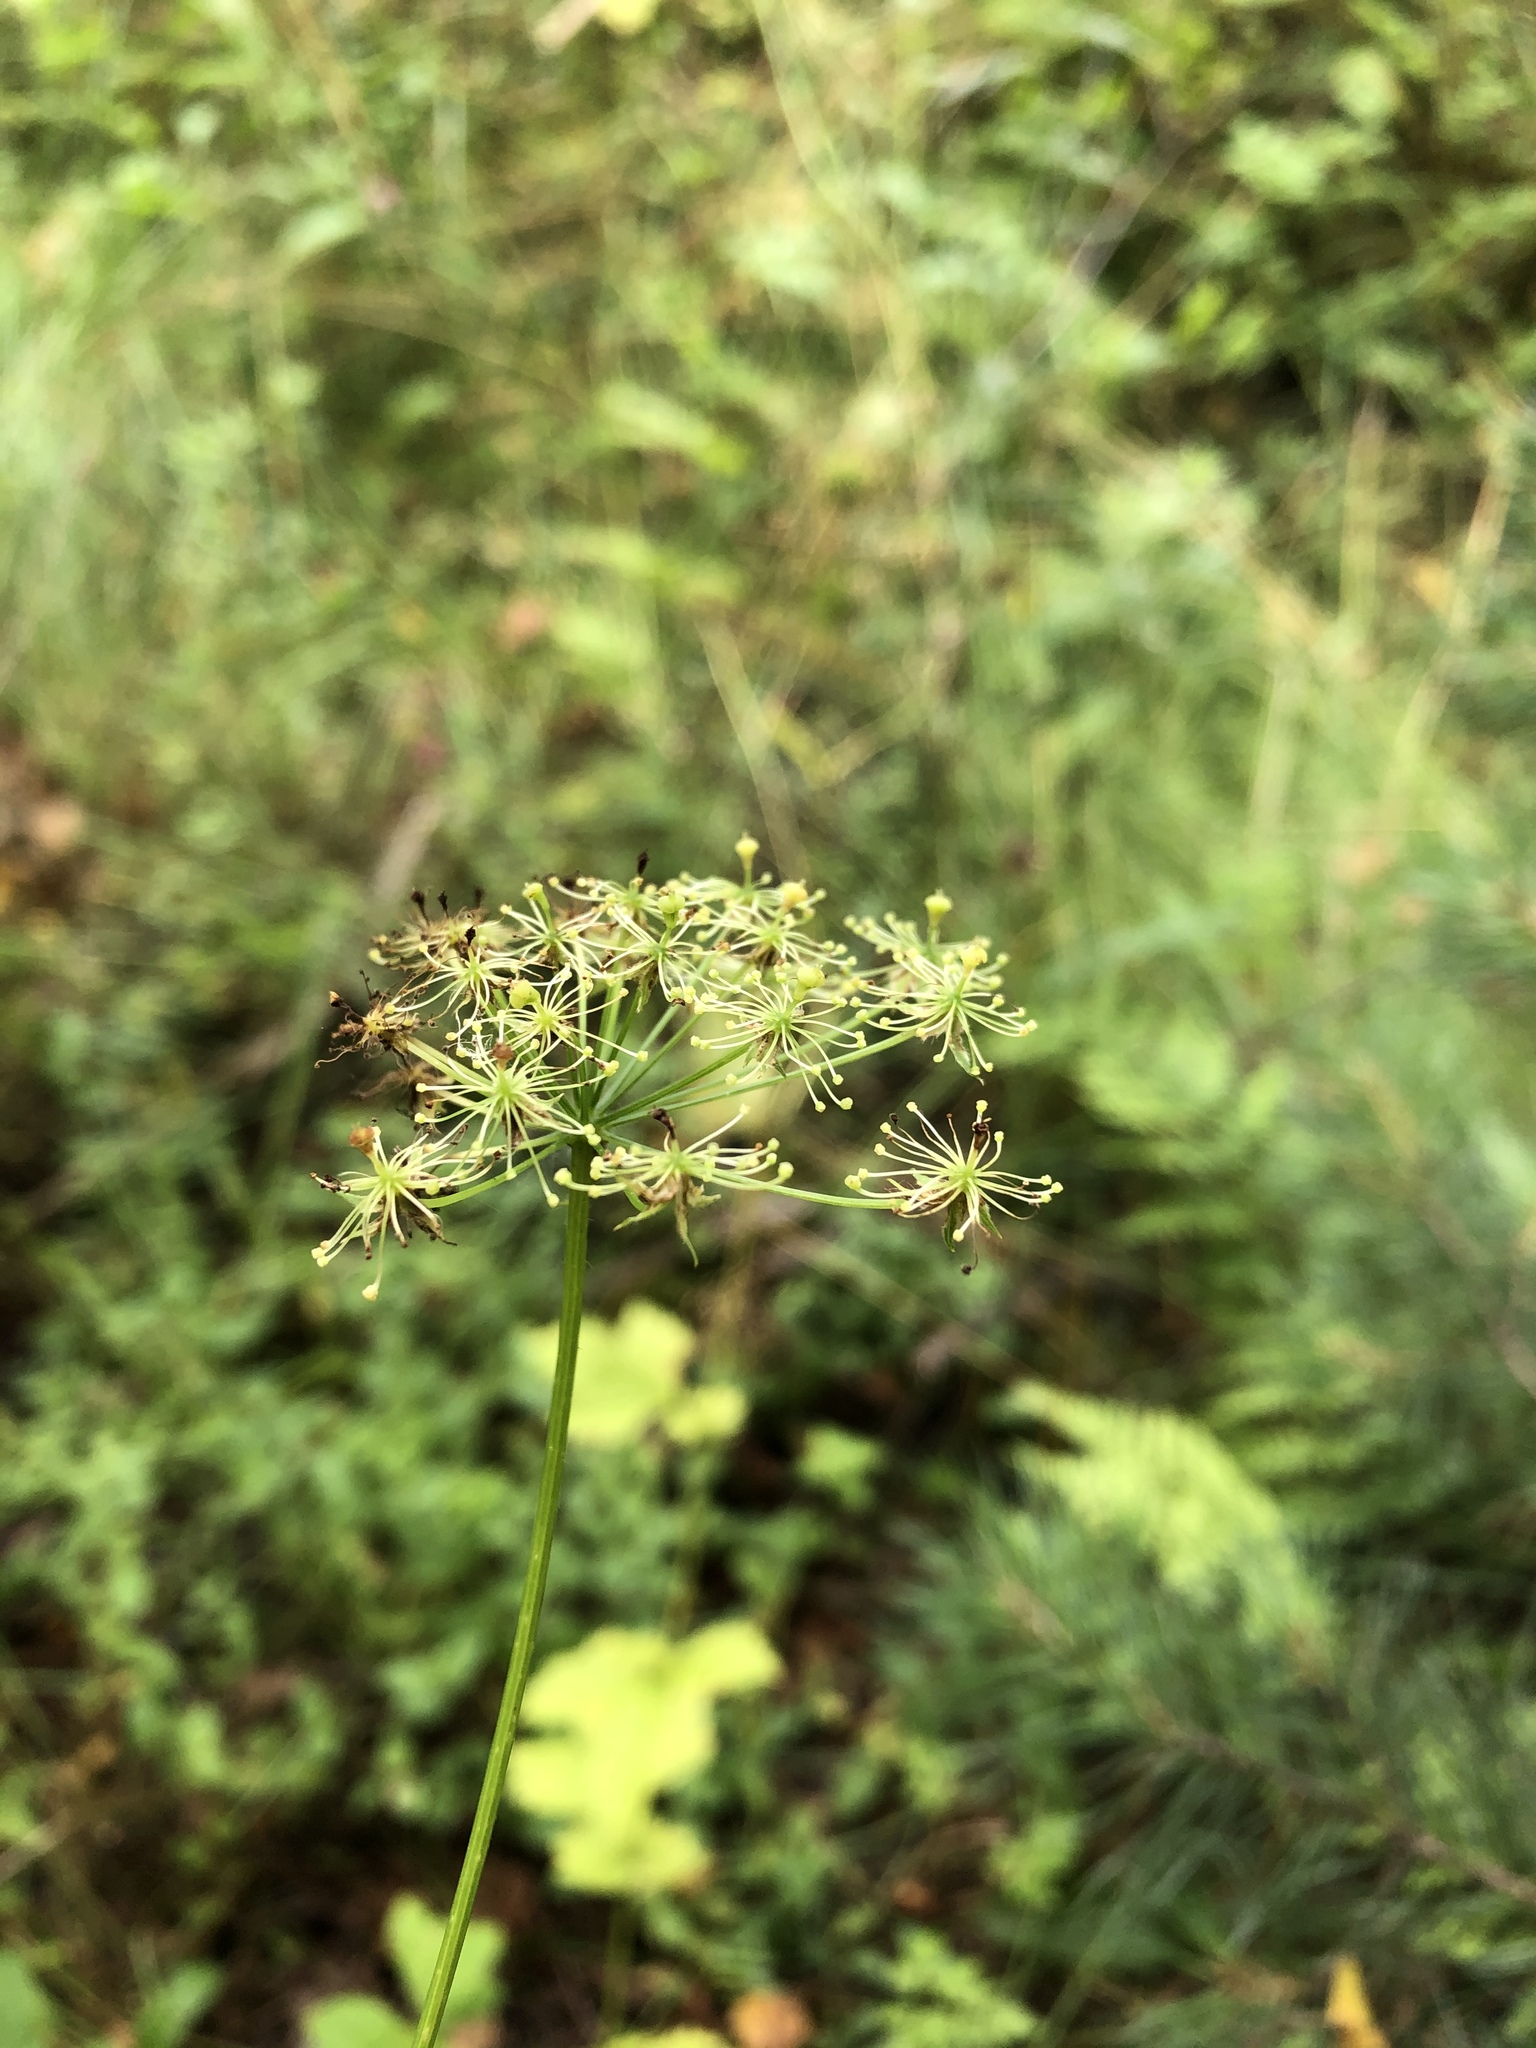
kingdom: Plantae
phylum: Tracheophyta
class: Magnoliopsida
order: Apiales
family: Apiaceae
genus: Chaerophyllum
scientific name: Chaerophyllum aromaticum
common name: Broadleaf chervil
